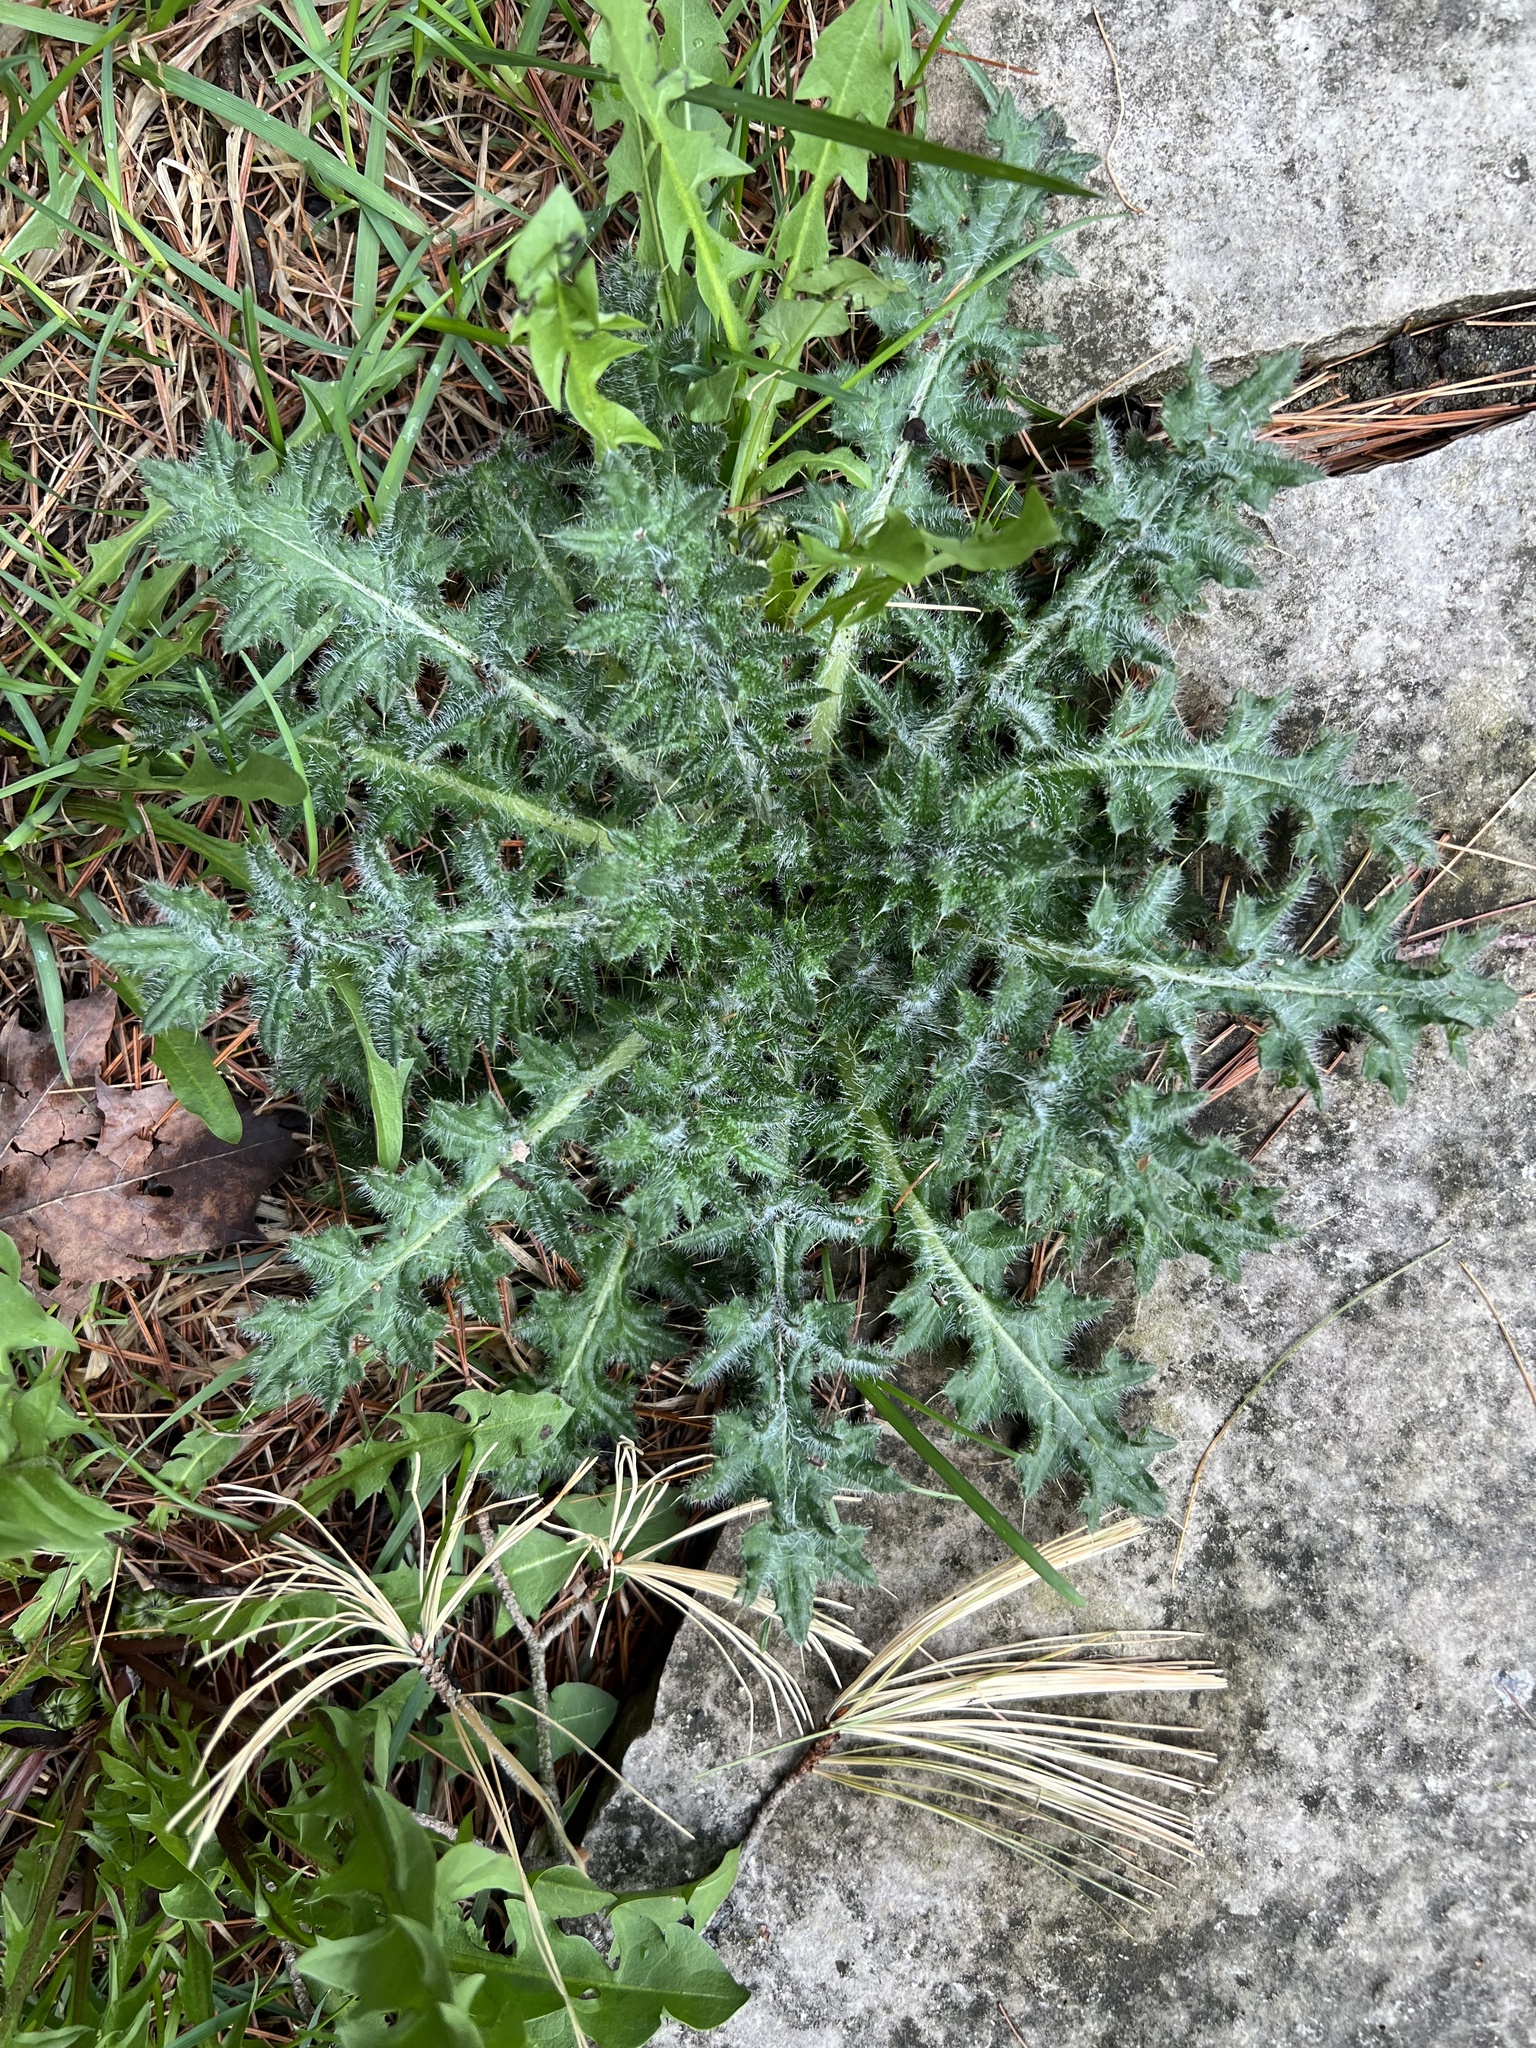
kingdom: Plantae
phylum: Tracheophyta
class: Magnoliopsida
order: Asterales
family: Asteraceae
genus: Cirsium
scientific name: Cirsium vulgare
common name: Bull thistle
